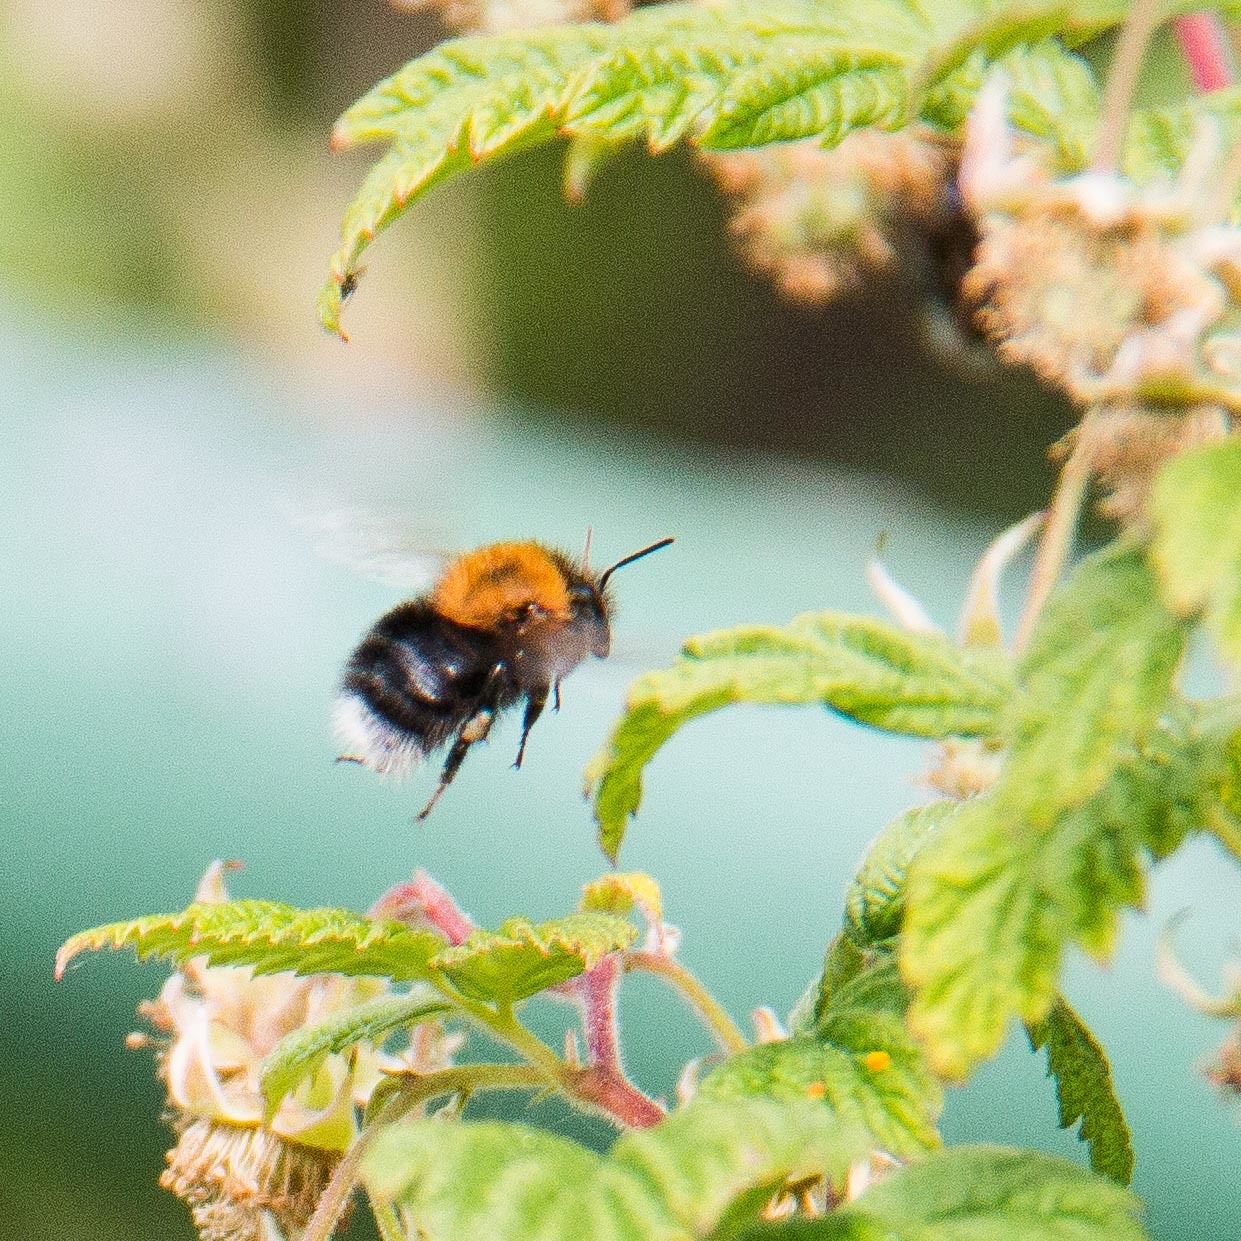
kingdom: Animalia
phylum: Arthropoda
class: Insecta
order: Hymenoptera
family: Apidae
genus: Bombus
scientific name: Bombus hypnorum
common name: New garden bumblebee
